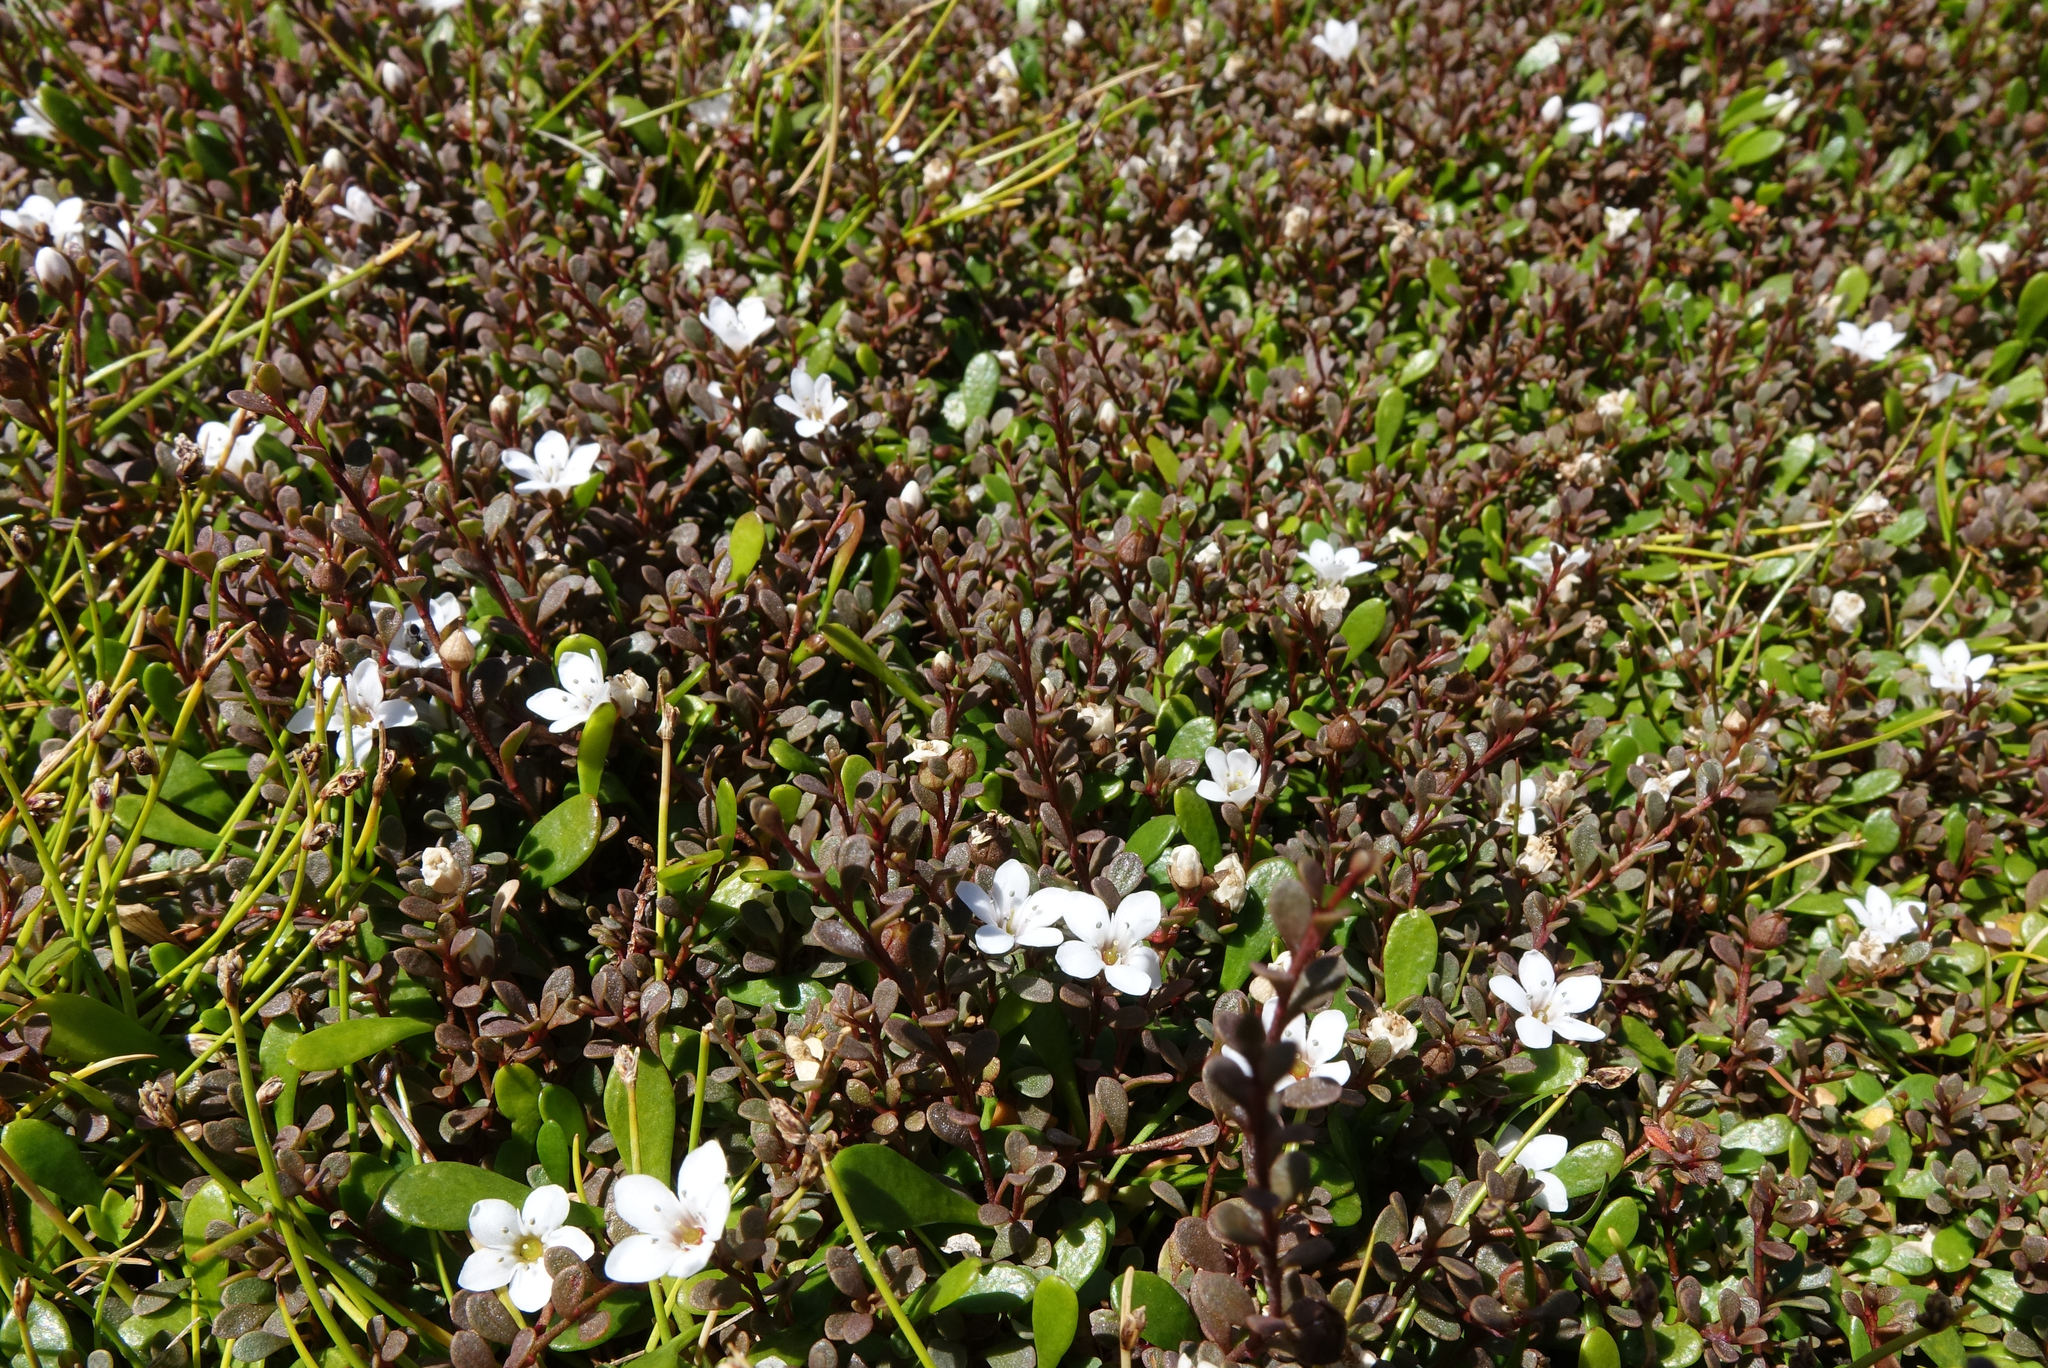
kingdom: Plantae
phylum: Tracheophyta
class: Magnoliopsida
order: Ericales
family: Primulaceae
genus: Samolus
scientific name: Samolus repens
